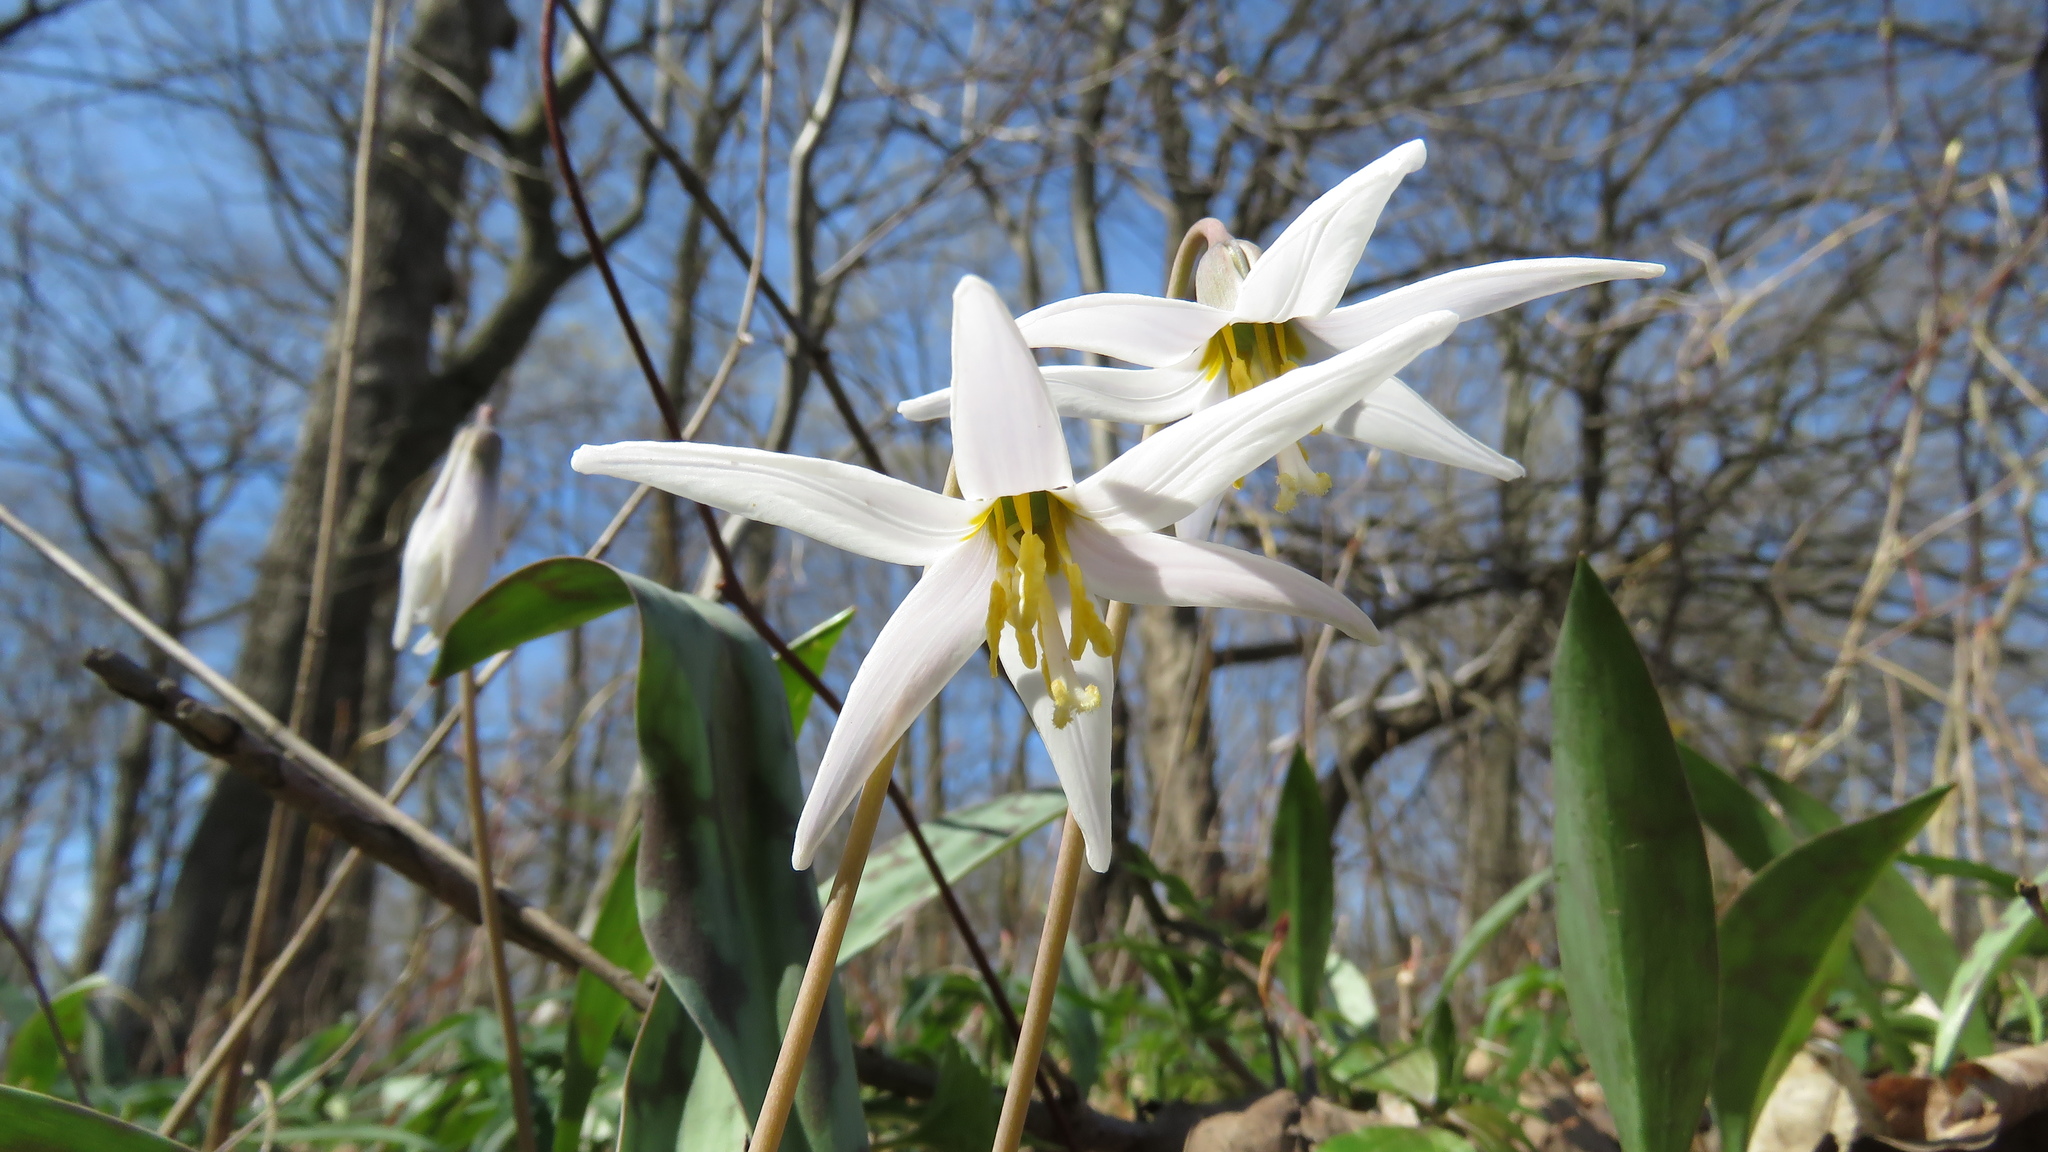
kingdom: Plantae
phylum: Tracheophyta
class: Liliopsida
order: Liliales
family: Liliaceae
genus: Erythronium
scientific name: Erythronium albidum
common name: White trout-lily
